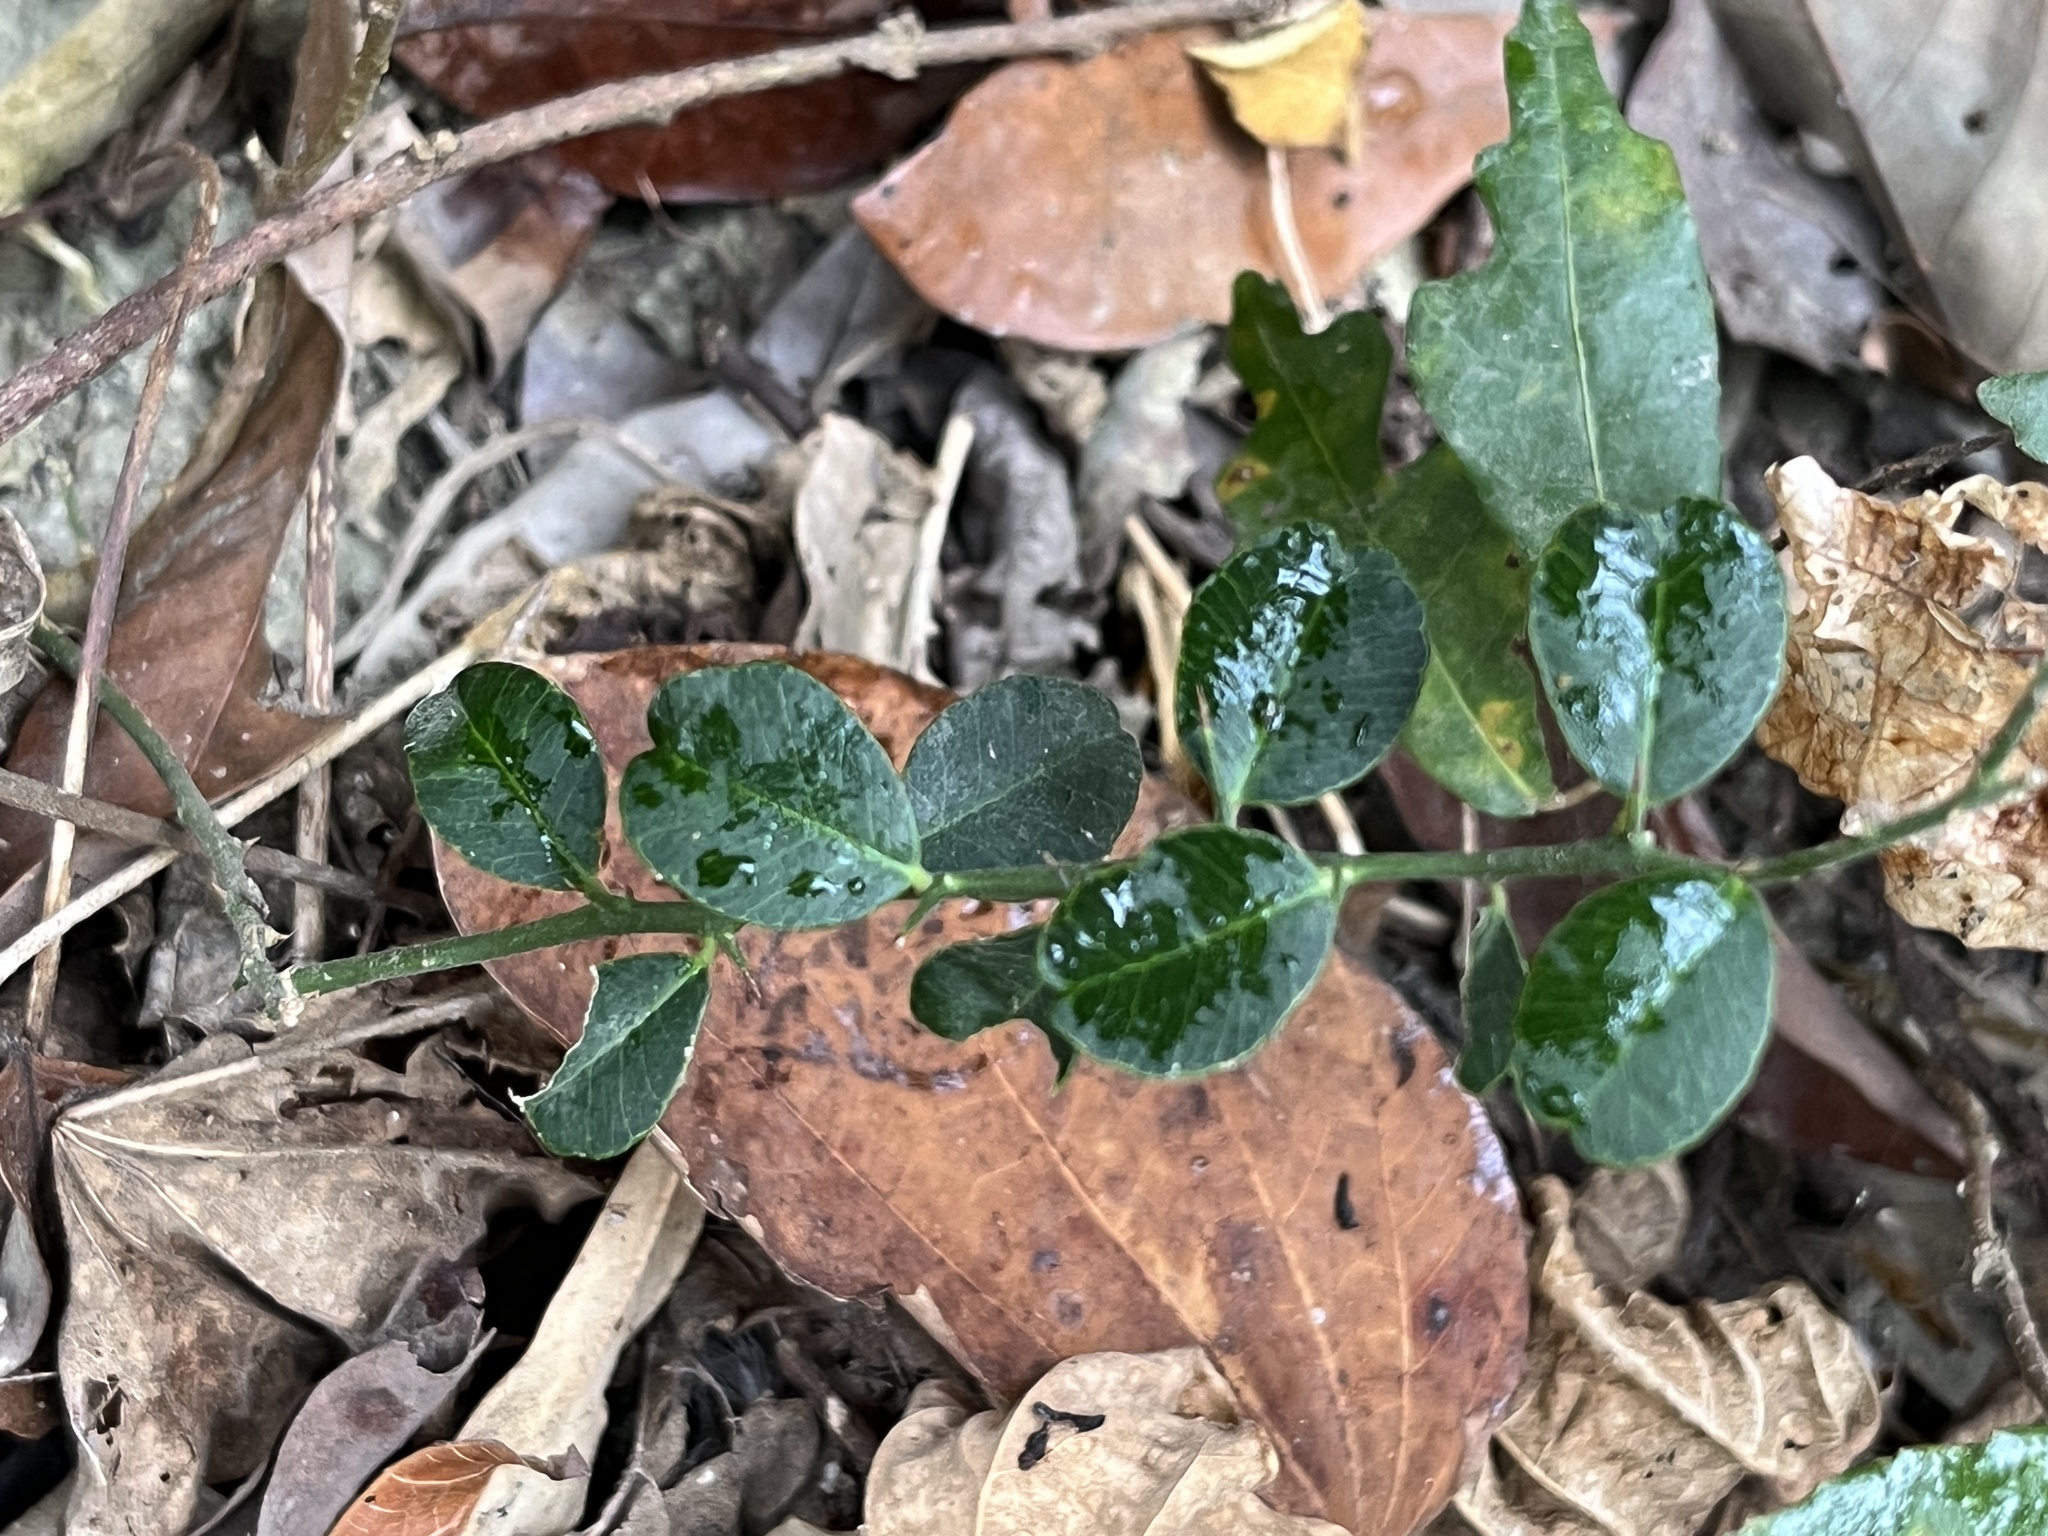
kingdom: Plantae
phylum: Tracheophyta
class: Magnoliopsida
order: Sapindales
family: Rutaceae
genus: Atalantia
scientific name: Atalantia buxifolia
